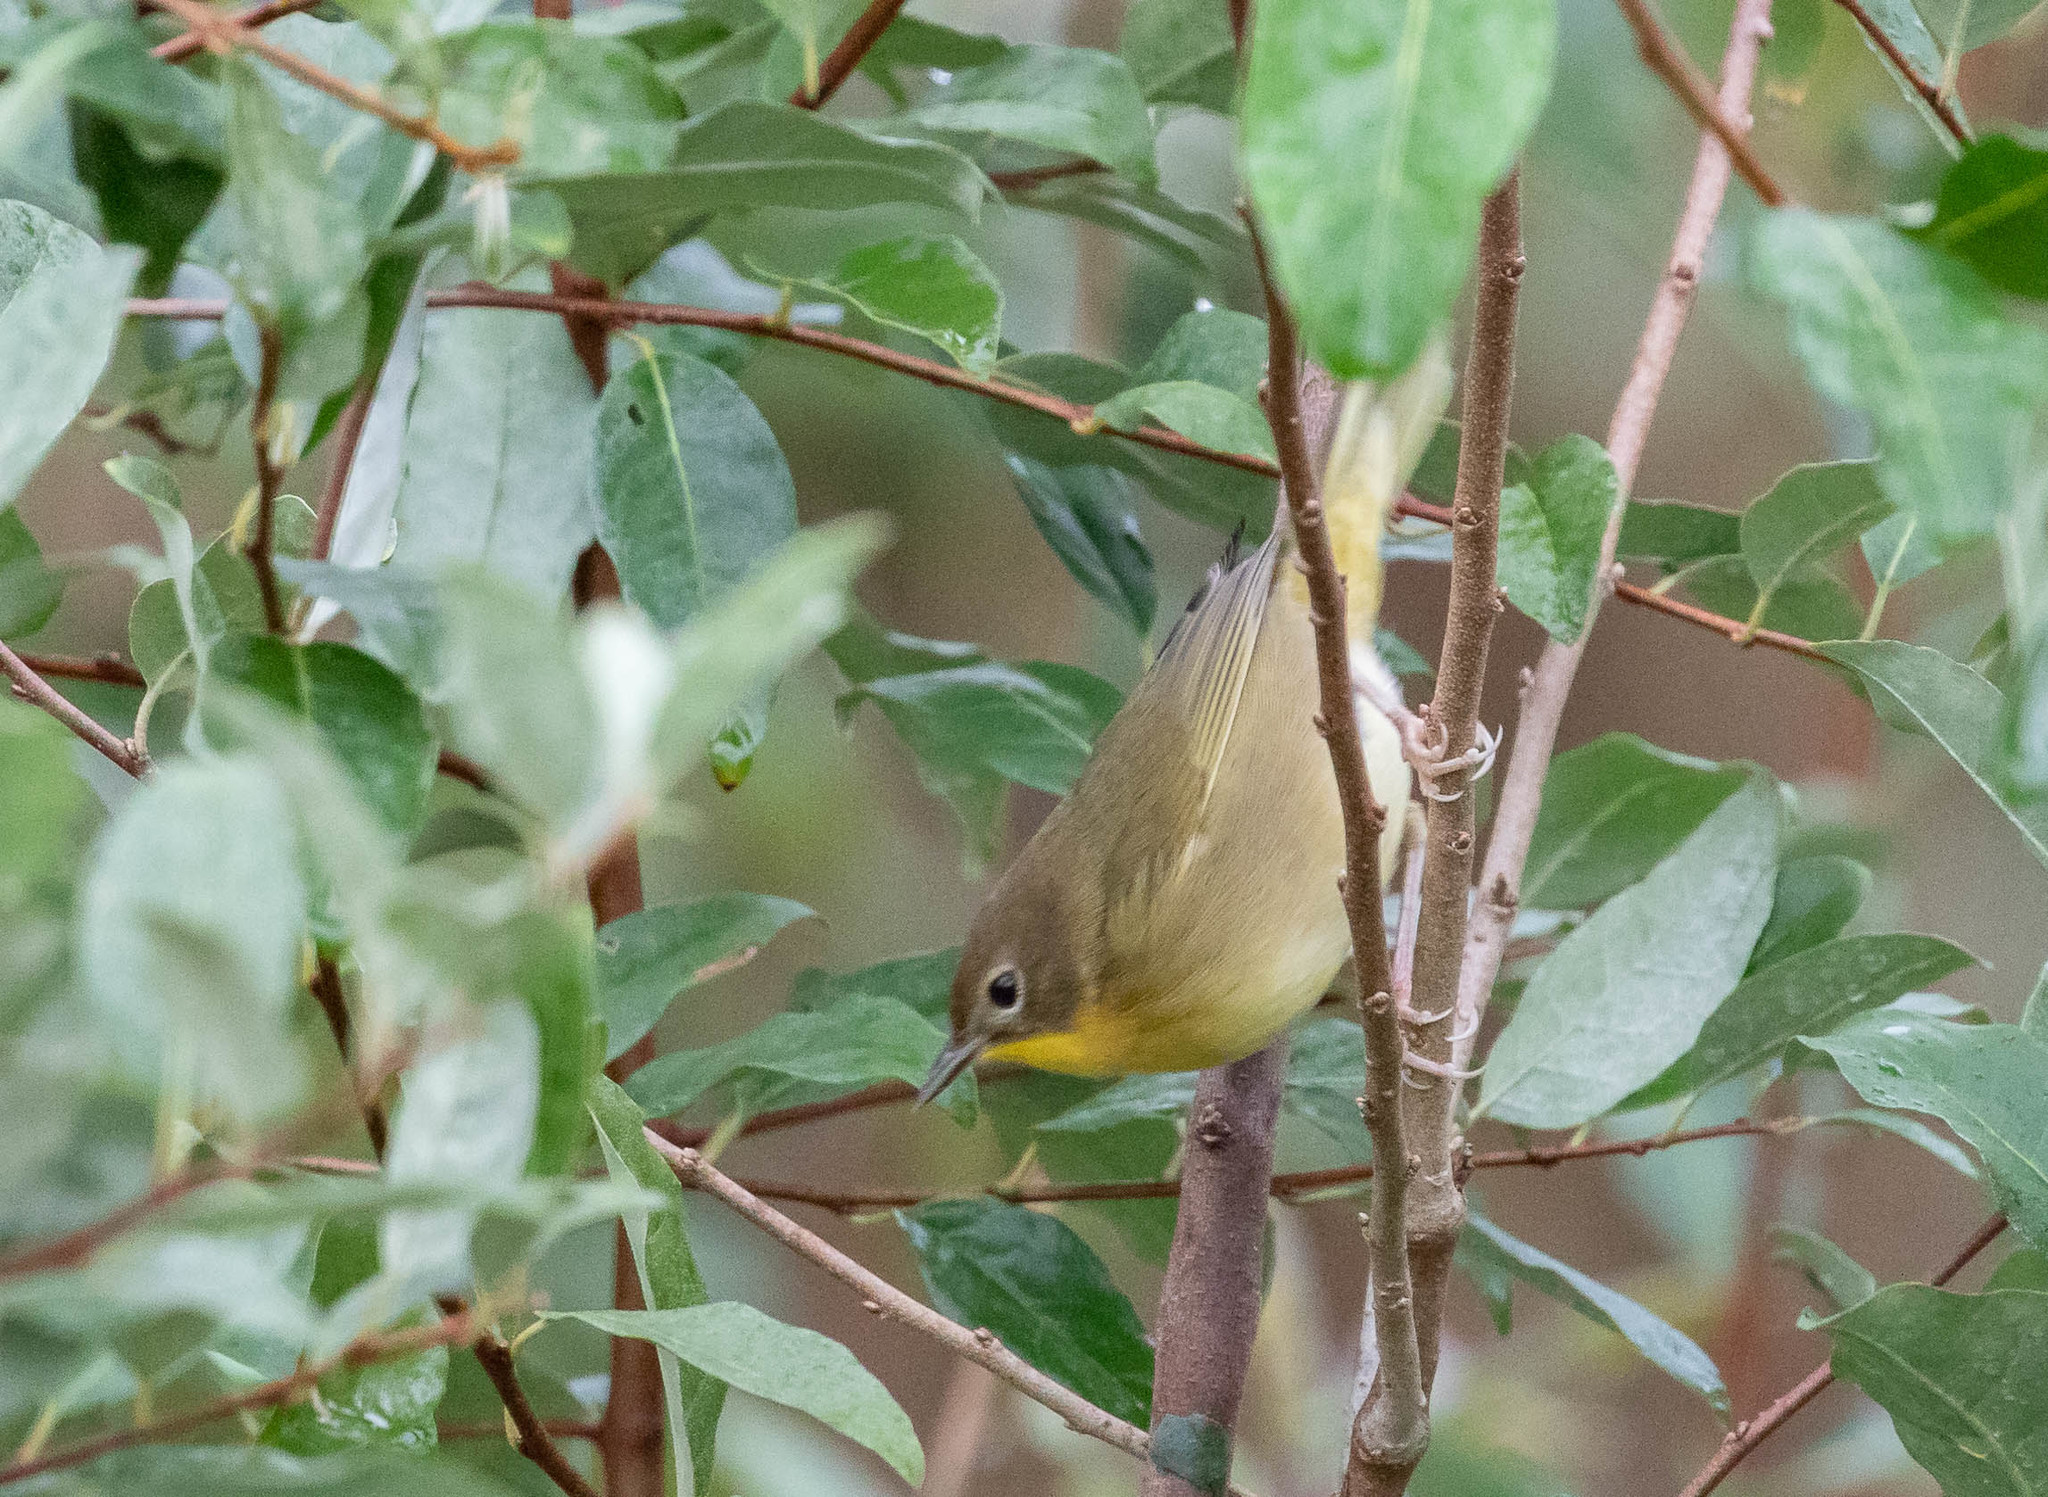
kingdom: Animalia
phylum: Chordata
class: Aves
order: Passeriformes
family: Parulidae
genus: Geothlypis
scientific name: Geothlypis trichas
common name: Common yellowthroat
